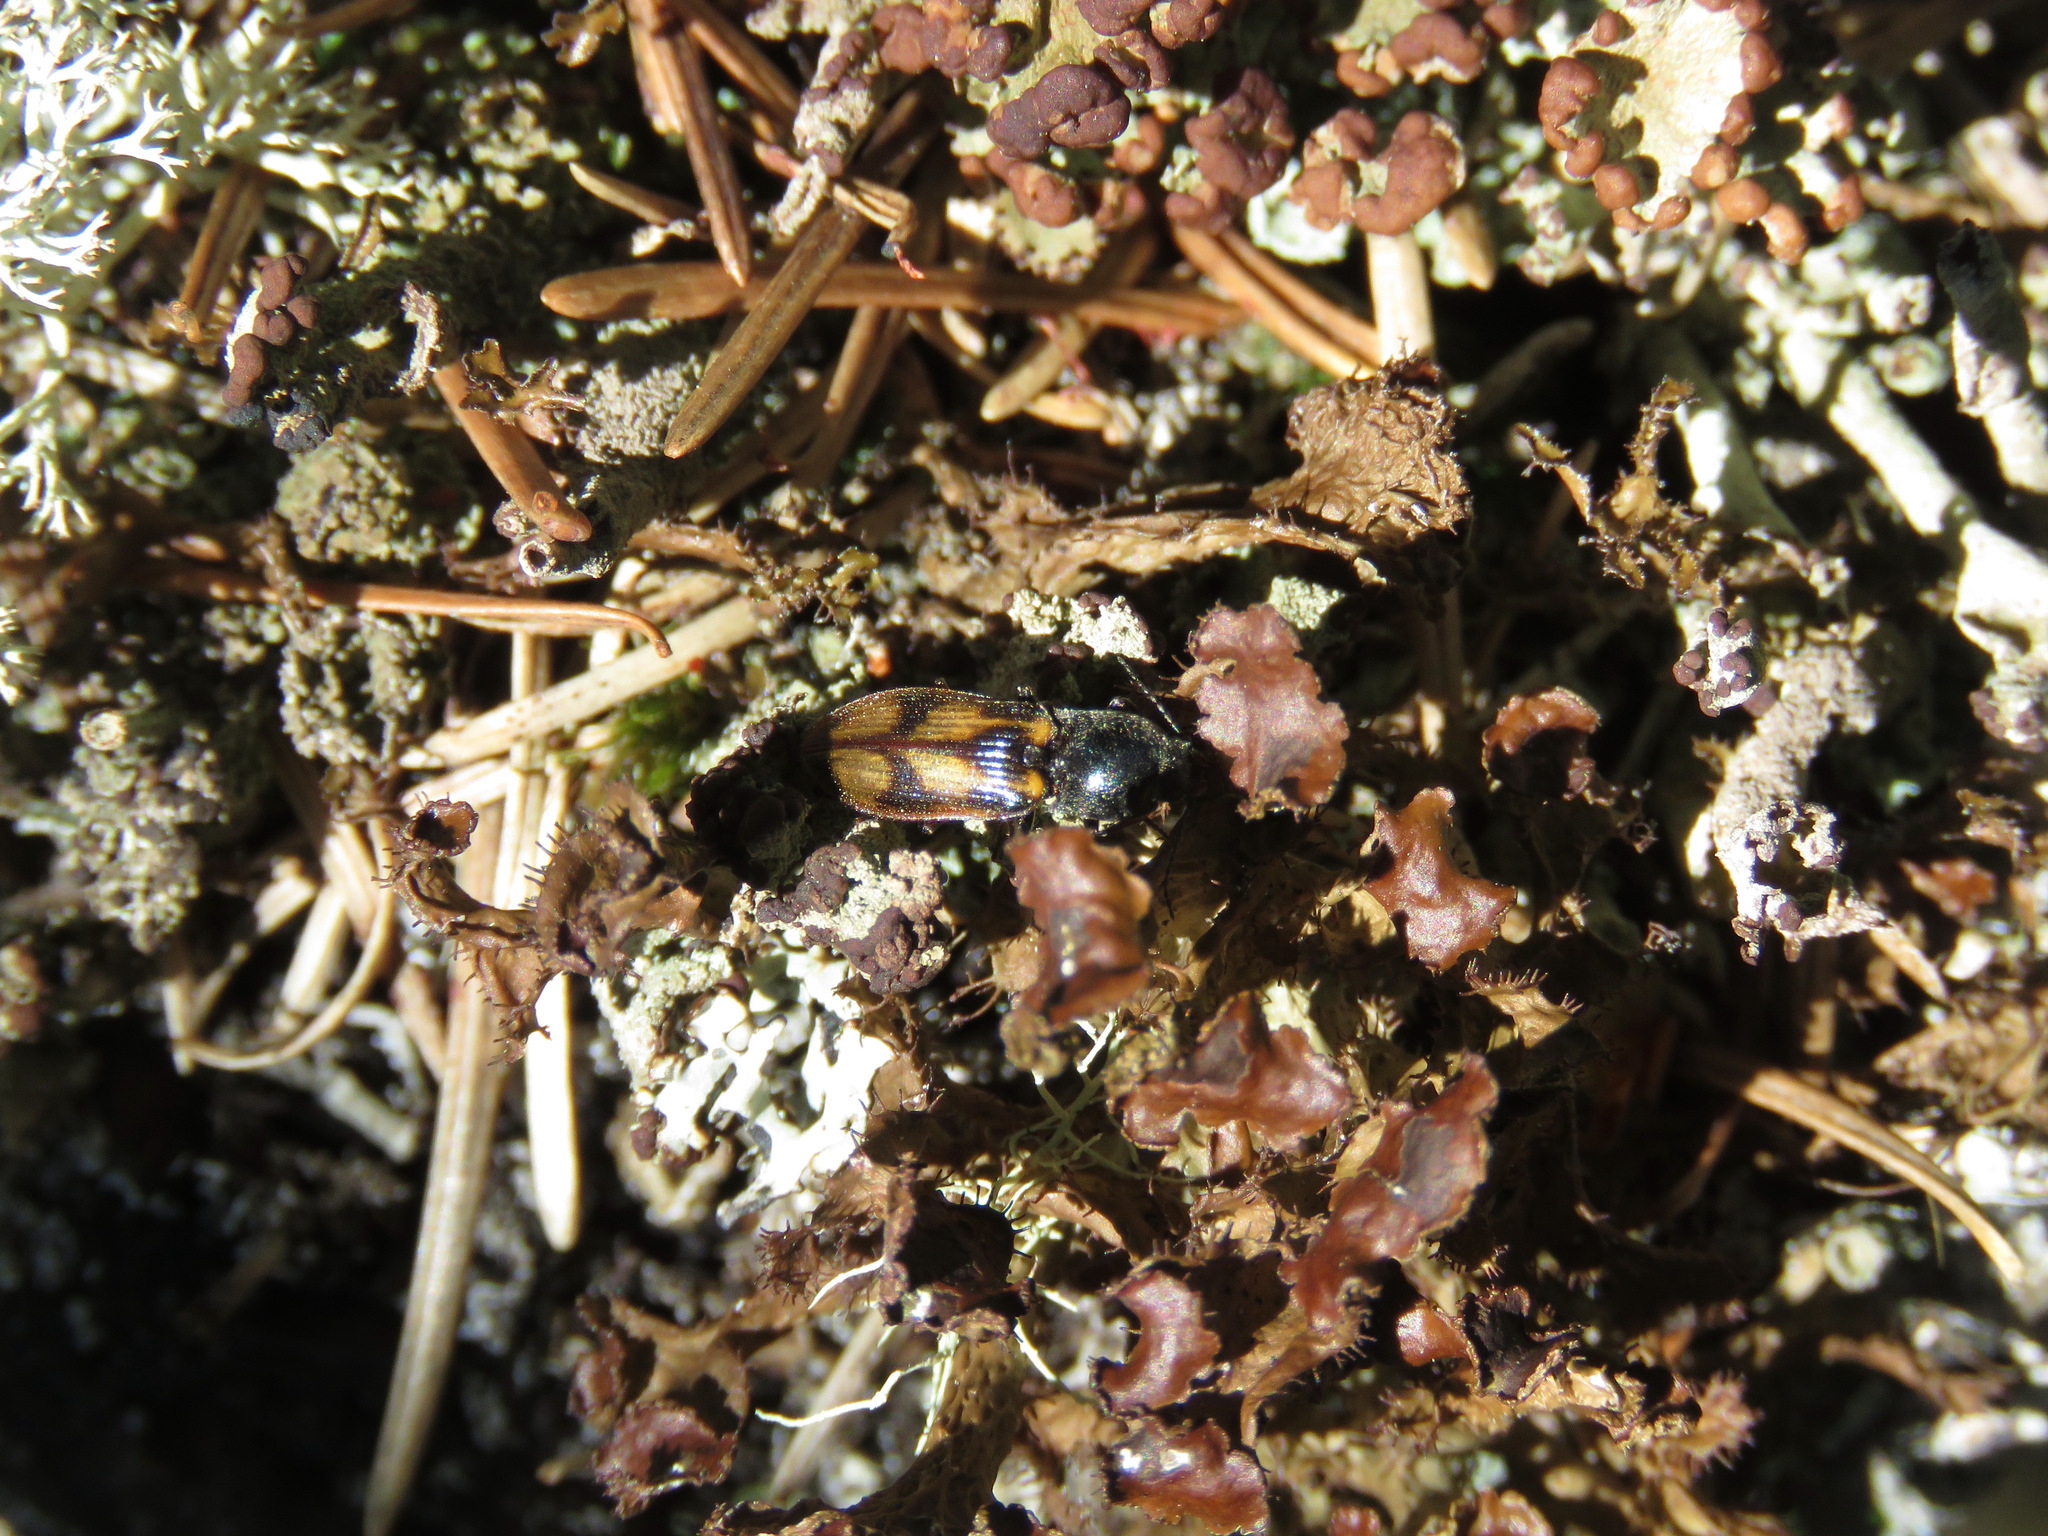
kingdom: Animalia
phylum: Arthropoda
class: Insecta
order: Coleoptera
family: Elateridae
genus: Liotrichus
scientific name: Liotrichus umbripennis
